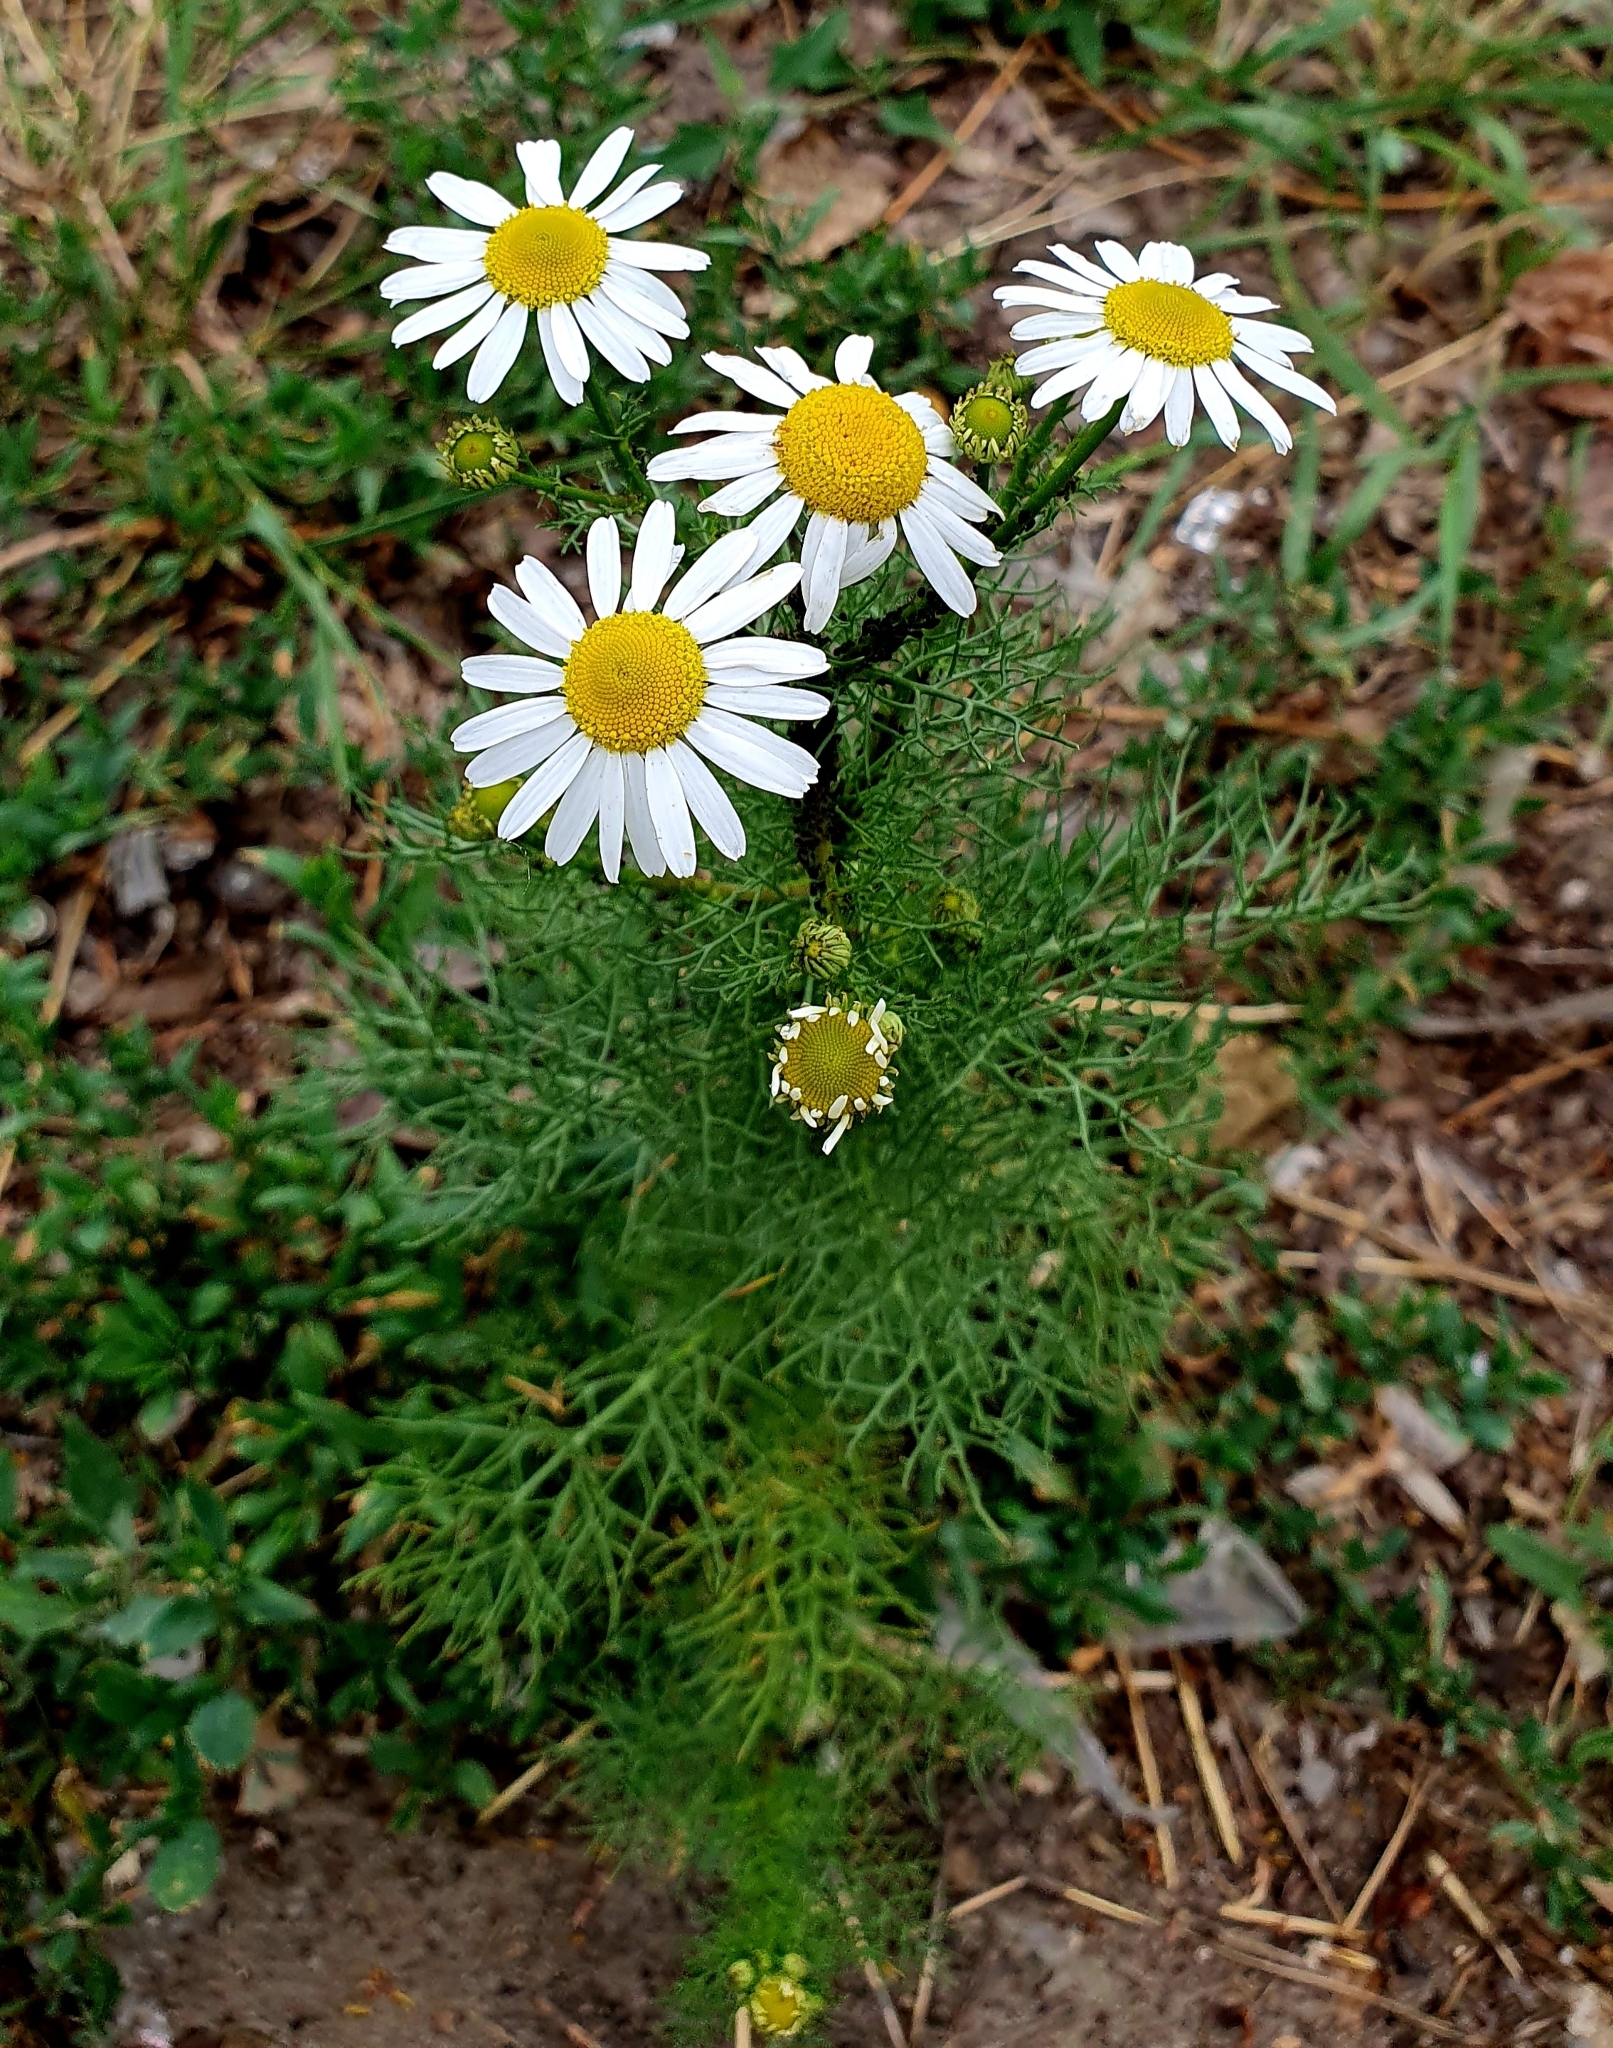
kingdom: Plantae
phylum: Tracheophyta
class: Magnoliopsida
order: Asterales
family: Asteraceae
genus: Tripleurospermum
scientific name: Tripleurospermum inodorum
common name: Scentless mayweed
